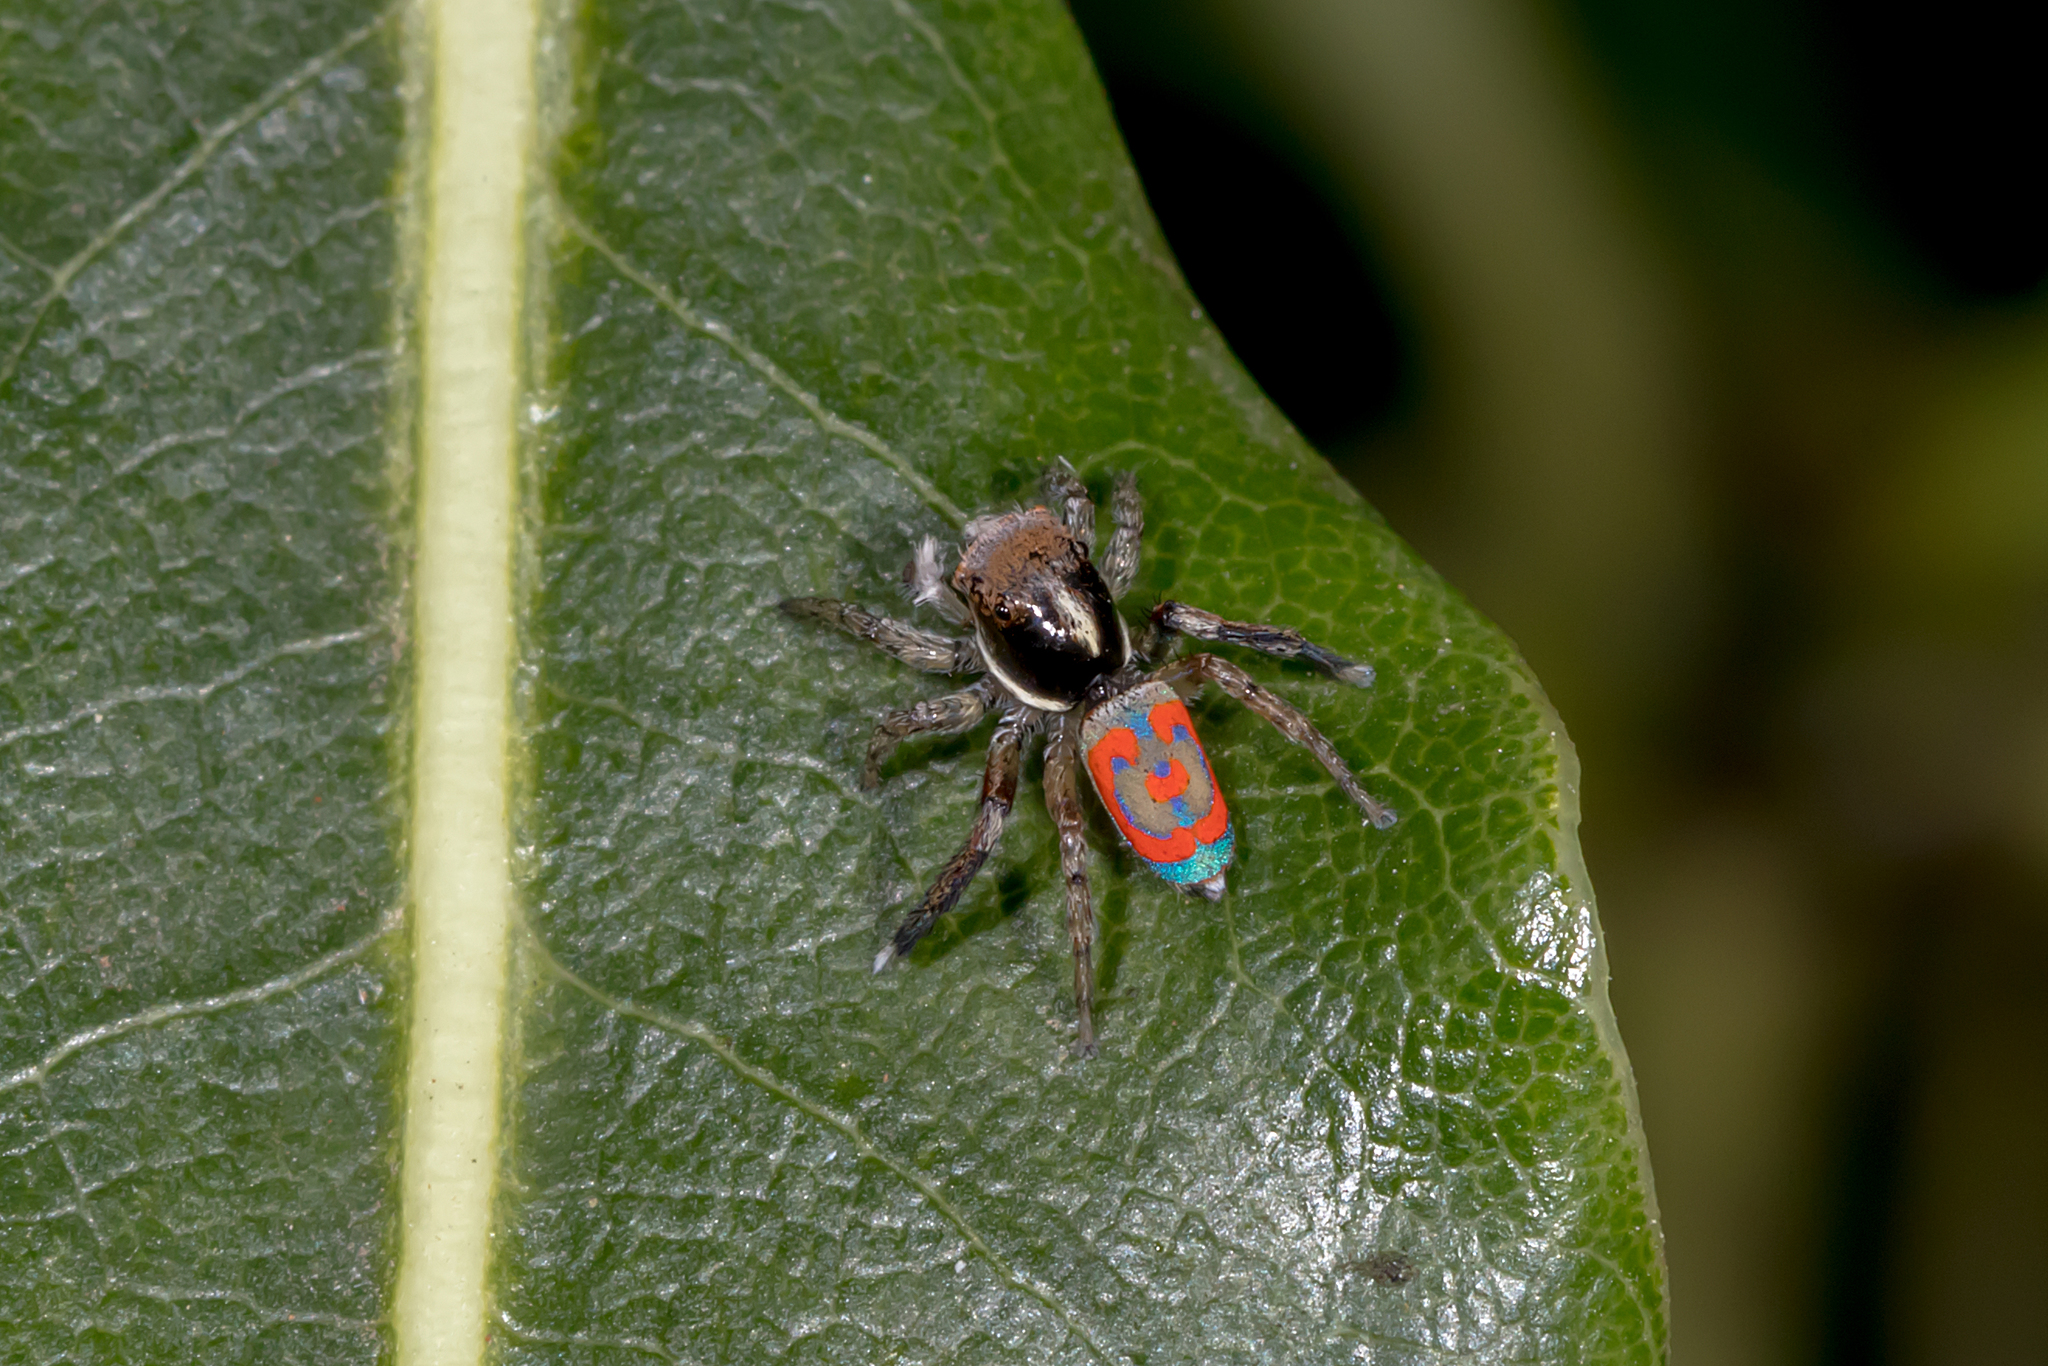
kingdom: Animalia
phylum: Arthropoda
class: Arachnida
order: Araneae
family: Salticidae
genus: Maratus
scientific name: Maratus pavonis
